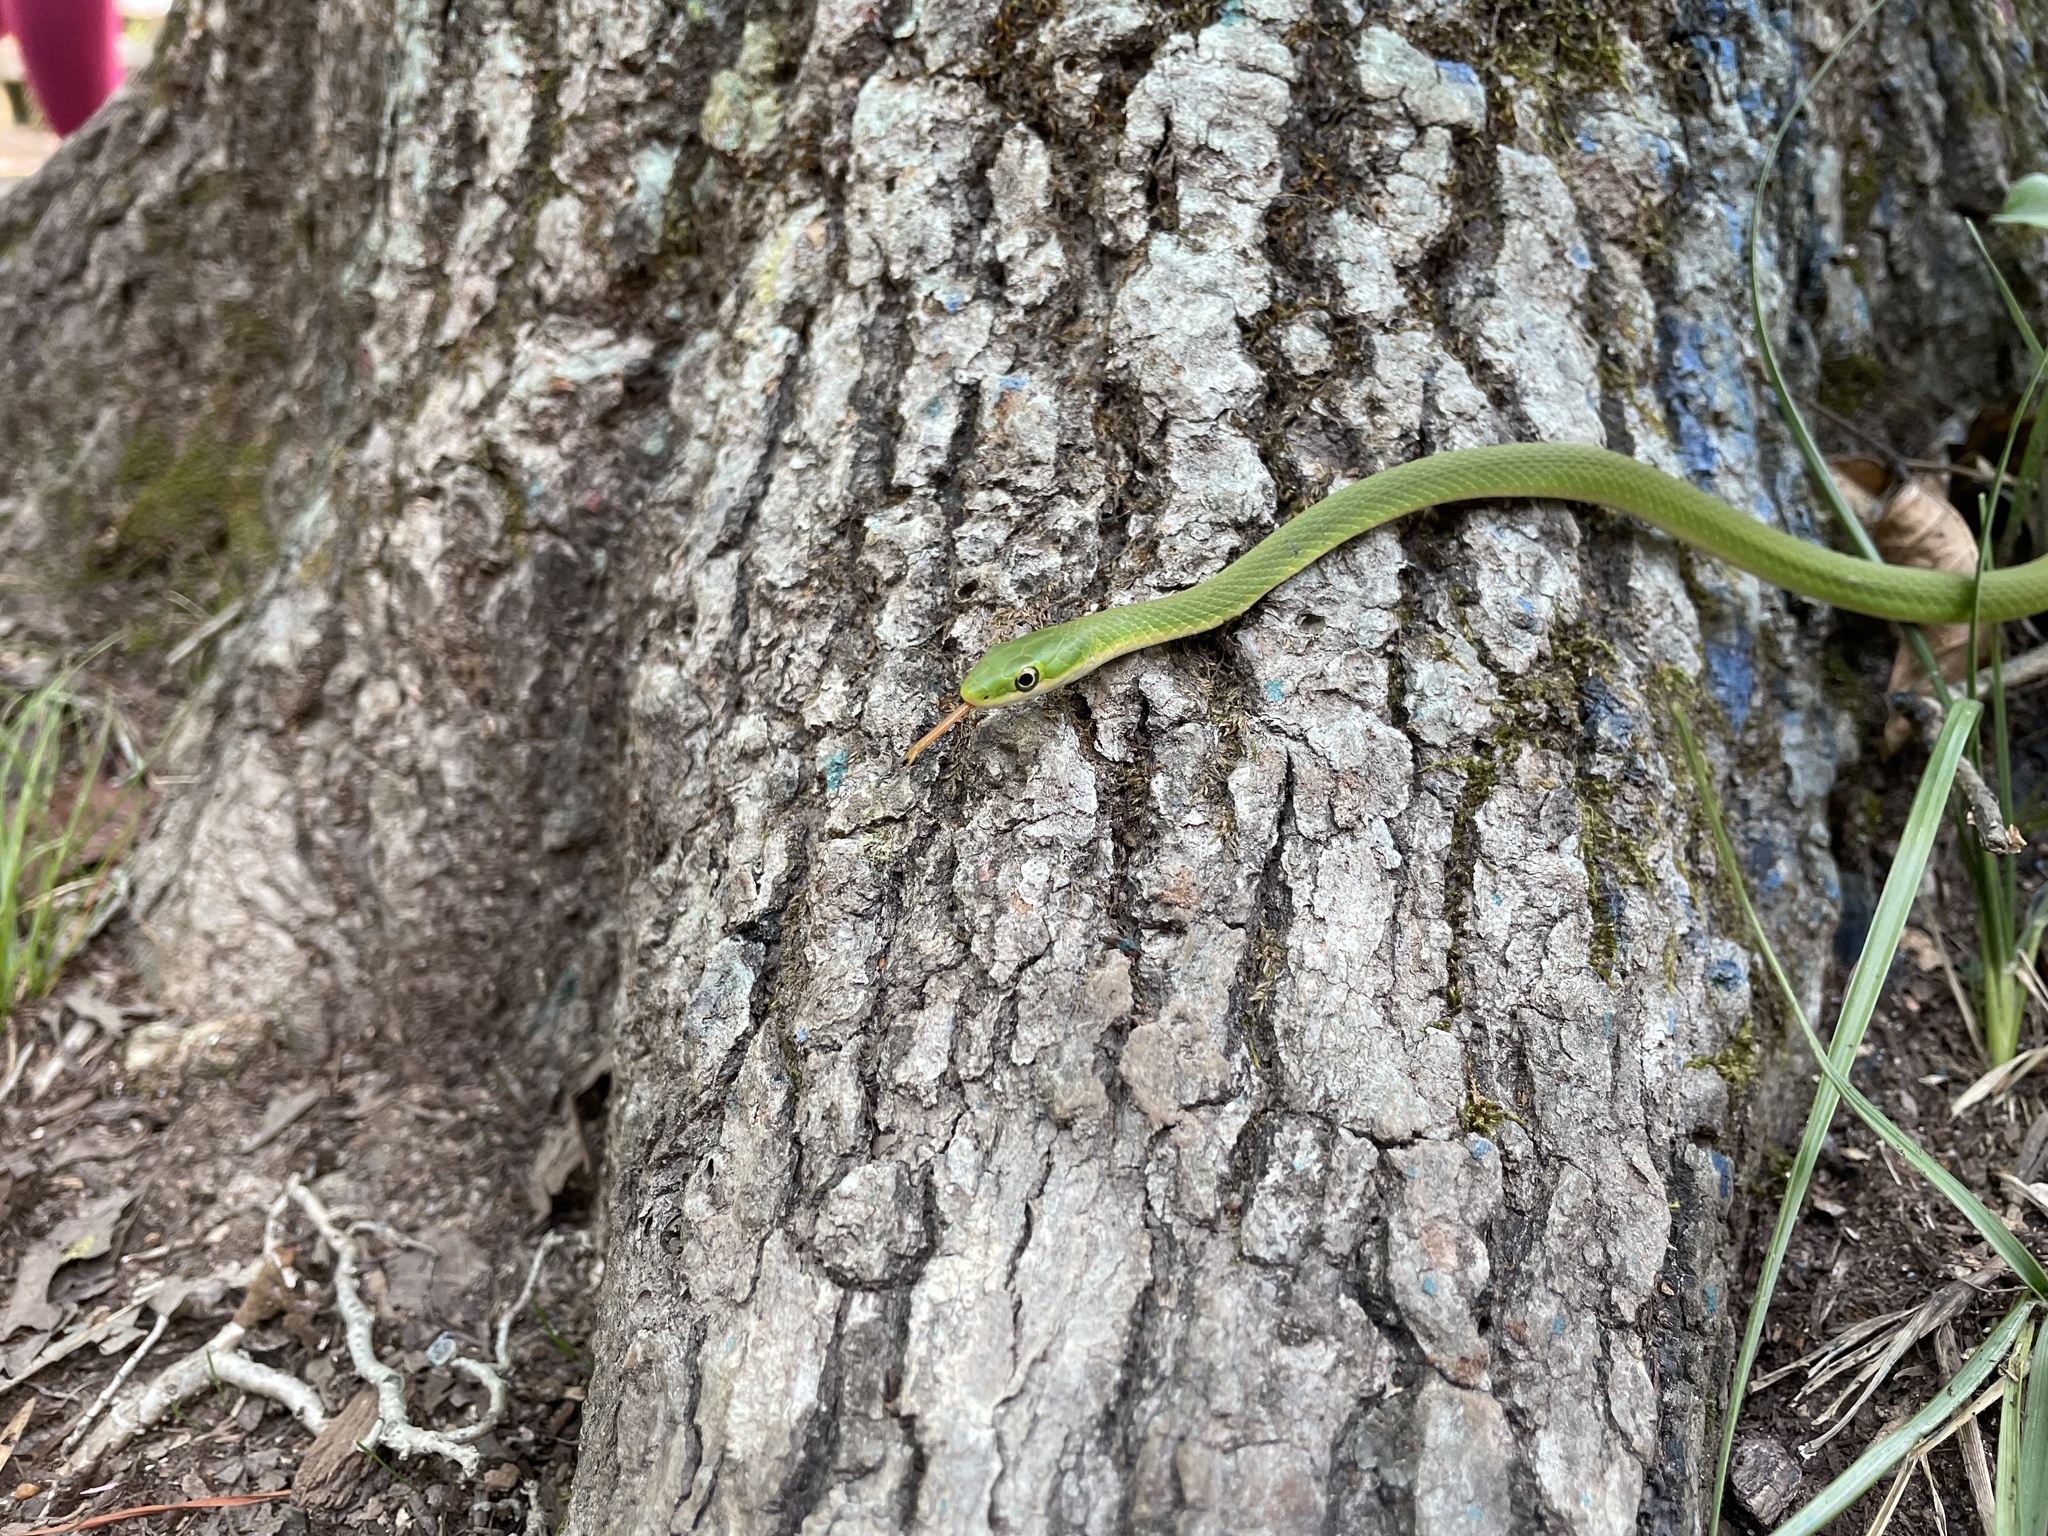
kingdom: Animalia
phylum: Chordata
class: Squamata
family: Colubridae
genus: Opheodrys
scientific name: Opheodrys aestivus
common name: Rough greensnake
